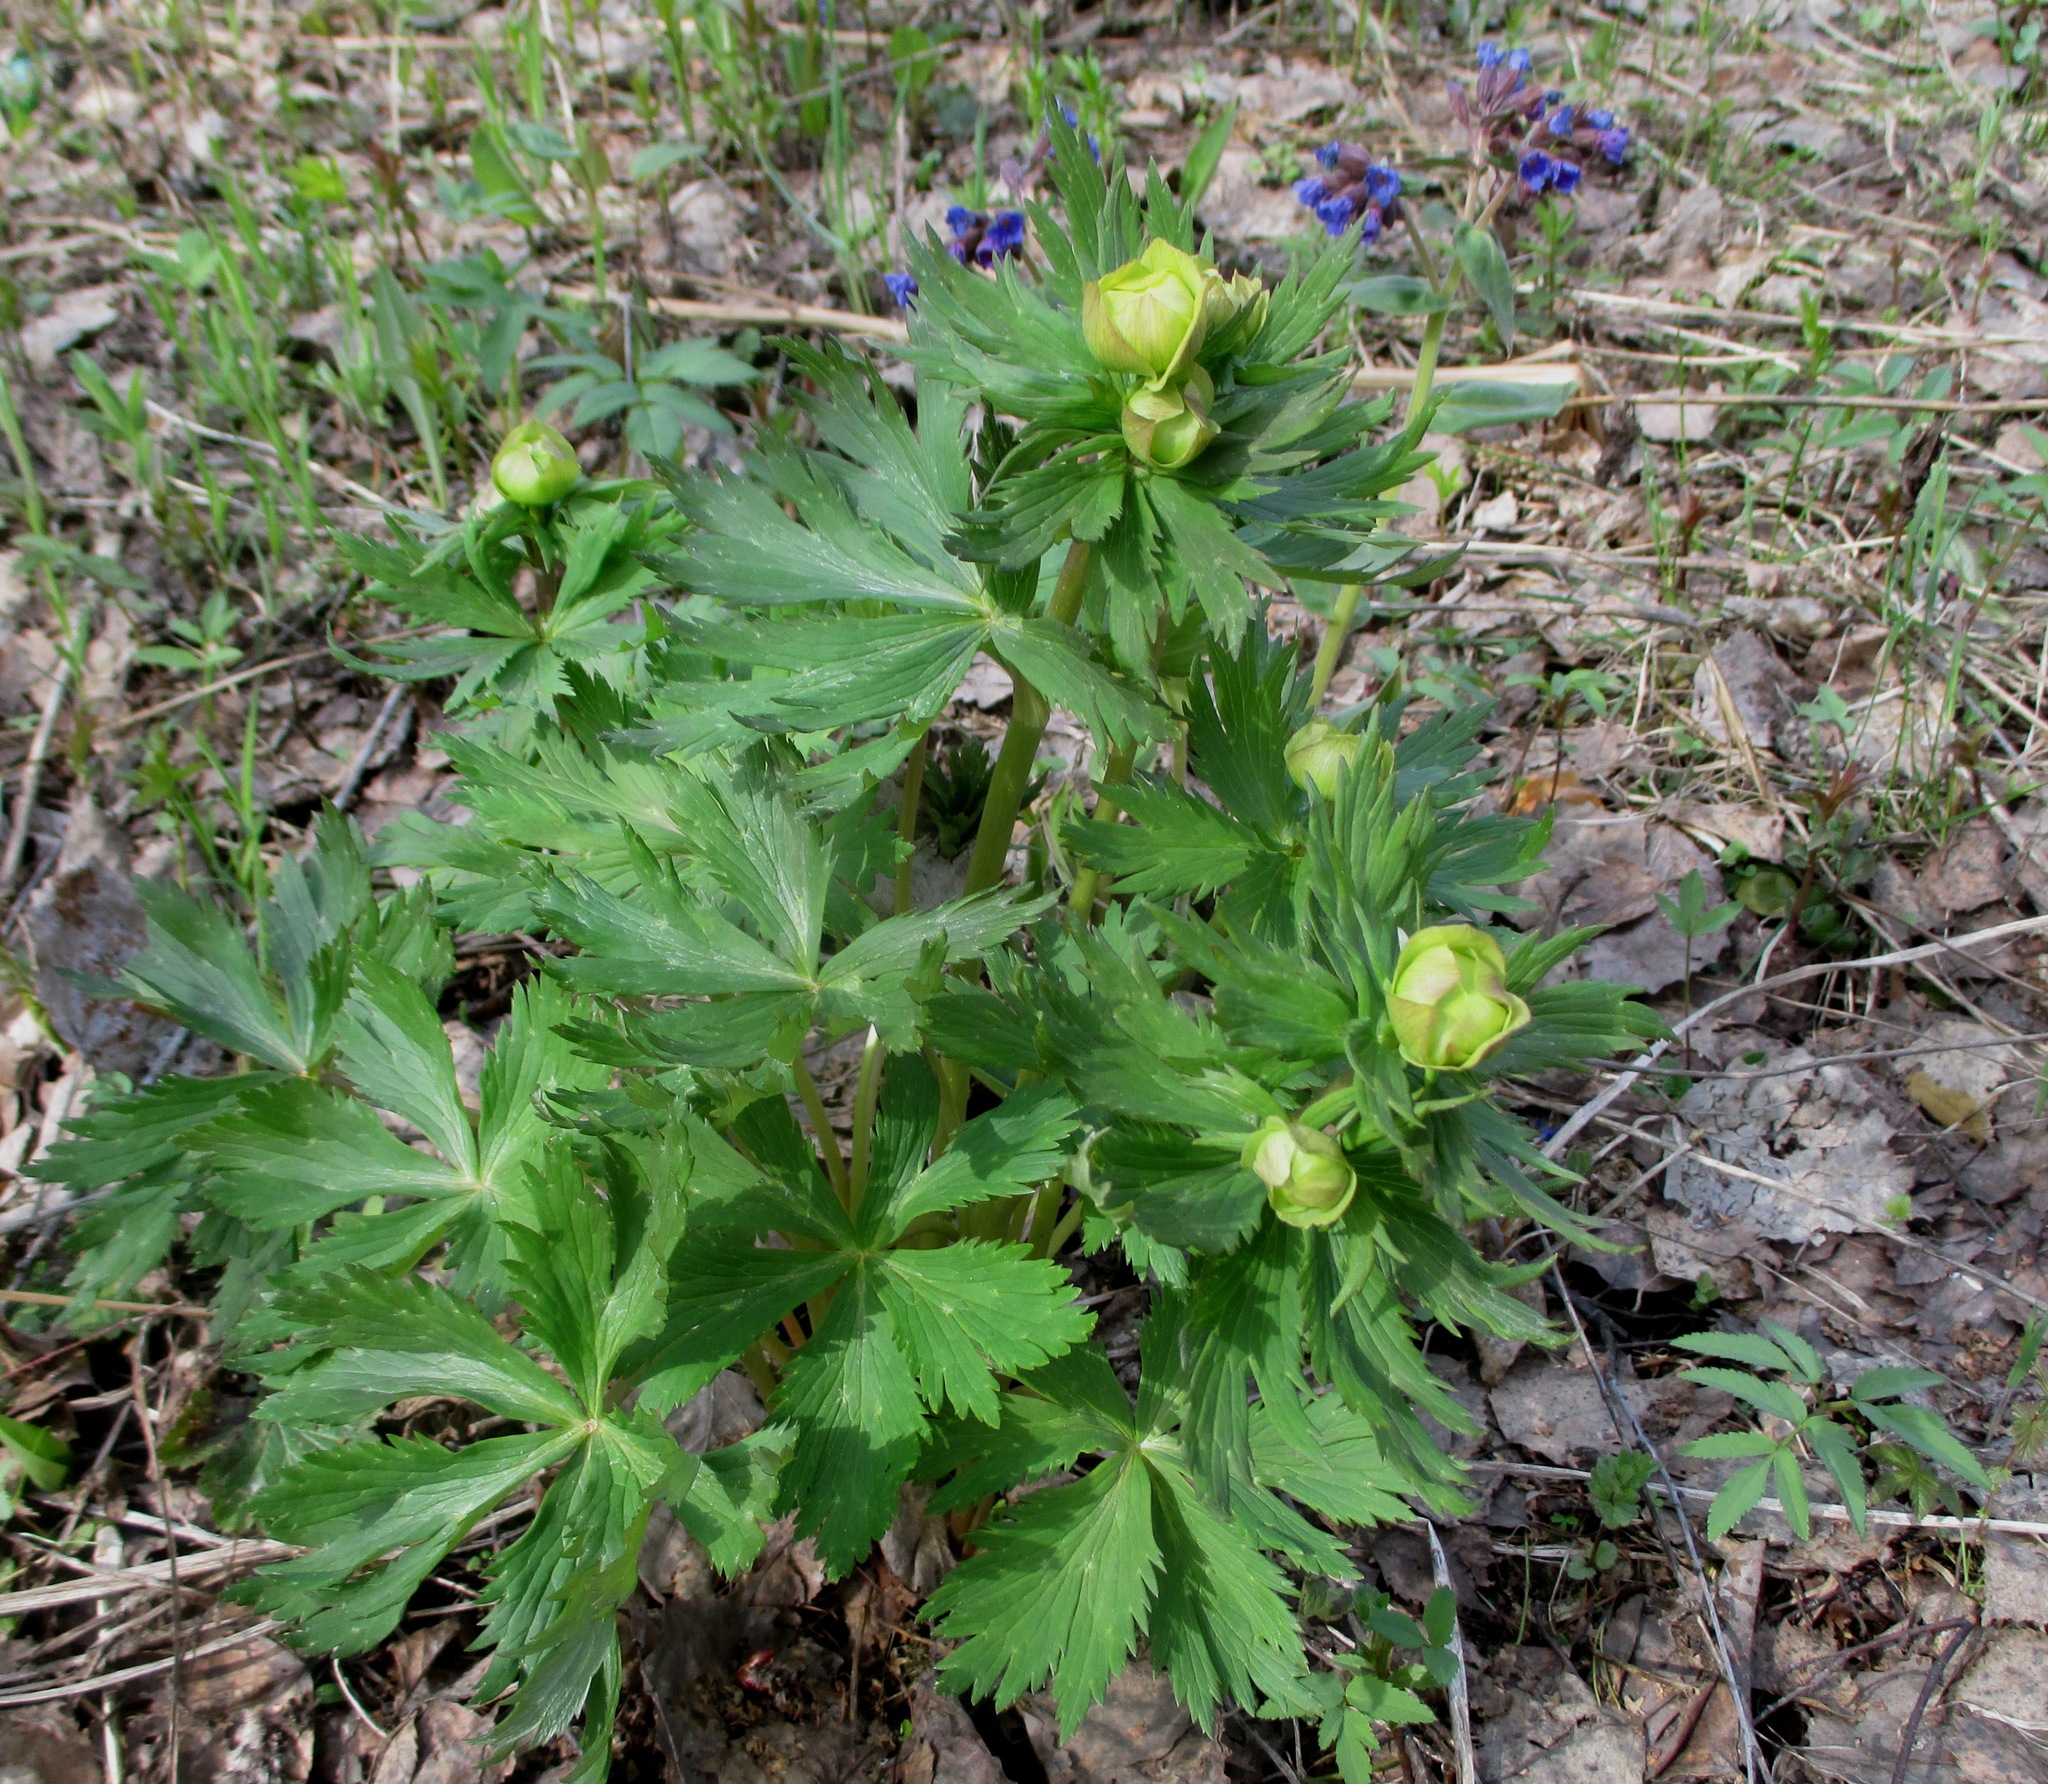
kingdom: Plantae
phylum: Tracheophyta
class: Magnoliopsida
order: Ranunculales
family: Ranunculaceae
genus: Trollius
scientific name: Trollius europaeus
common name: European globeflower
